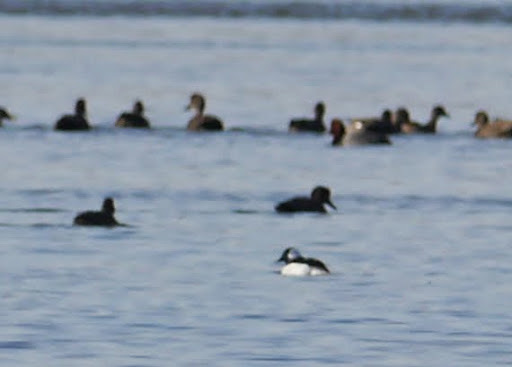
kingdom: Animalia
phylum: Chordata
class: Aves
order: Anseriformes
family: Anatidae
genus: Bucephala
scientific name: Bucephala albeola
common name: Bufflehead
